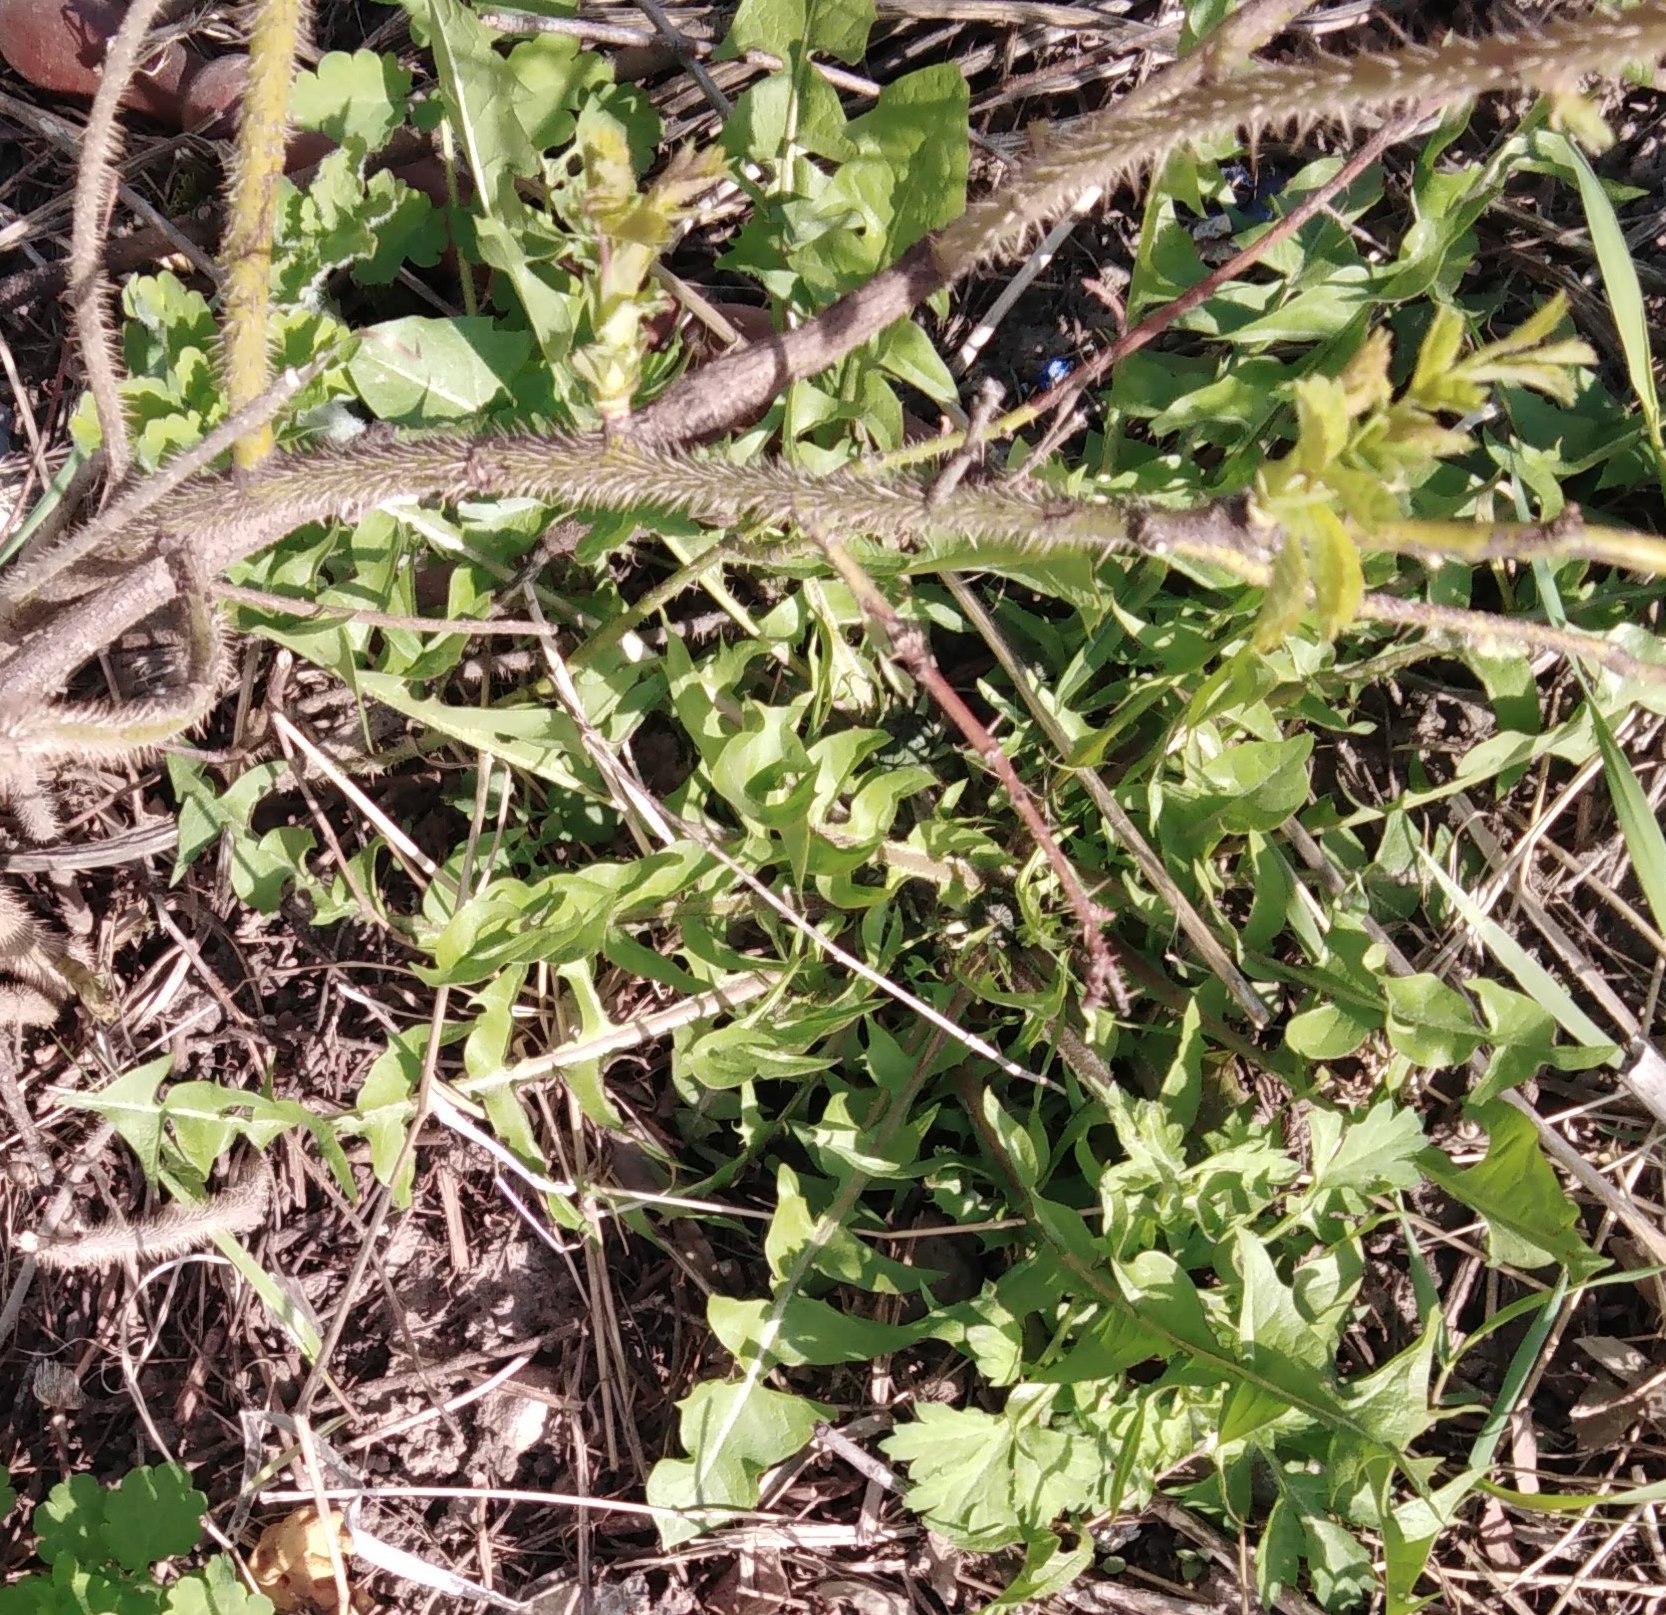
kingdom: Plantae
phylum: Tracheophyta
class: Magnoliopsida
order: Asterales
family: Asteraceae
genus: Taraxacum
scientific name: Taraxacum officinale
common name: Common dandelion
